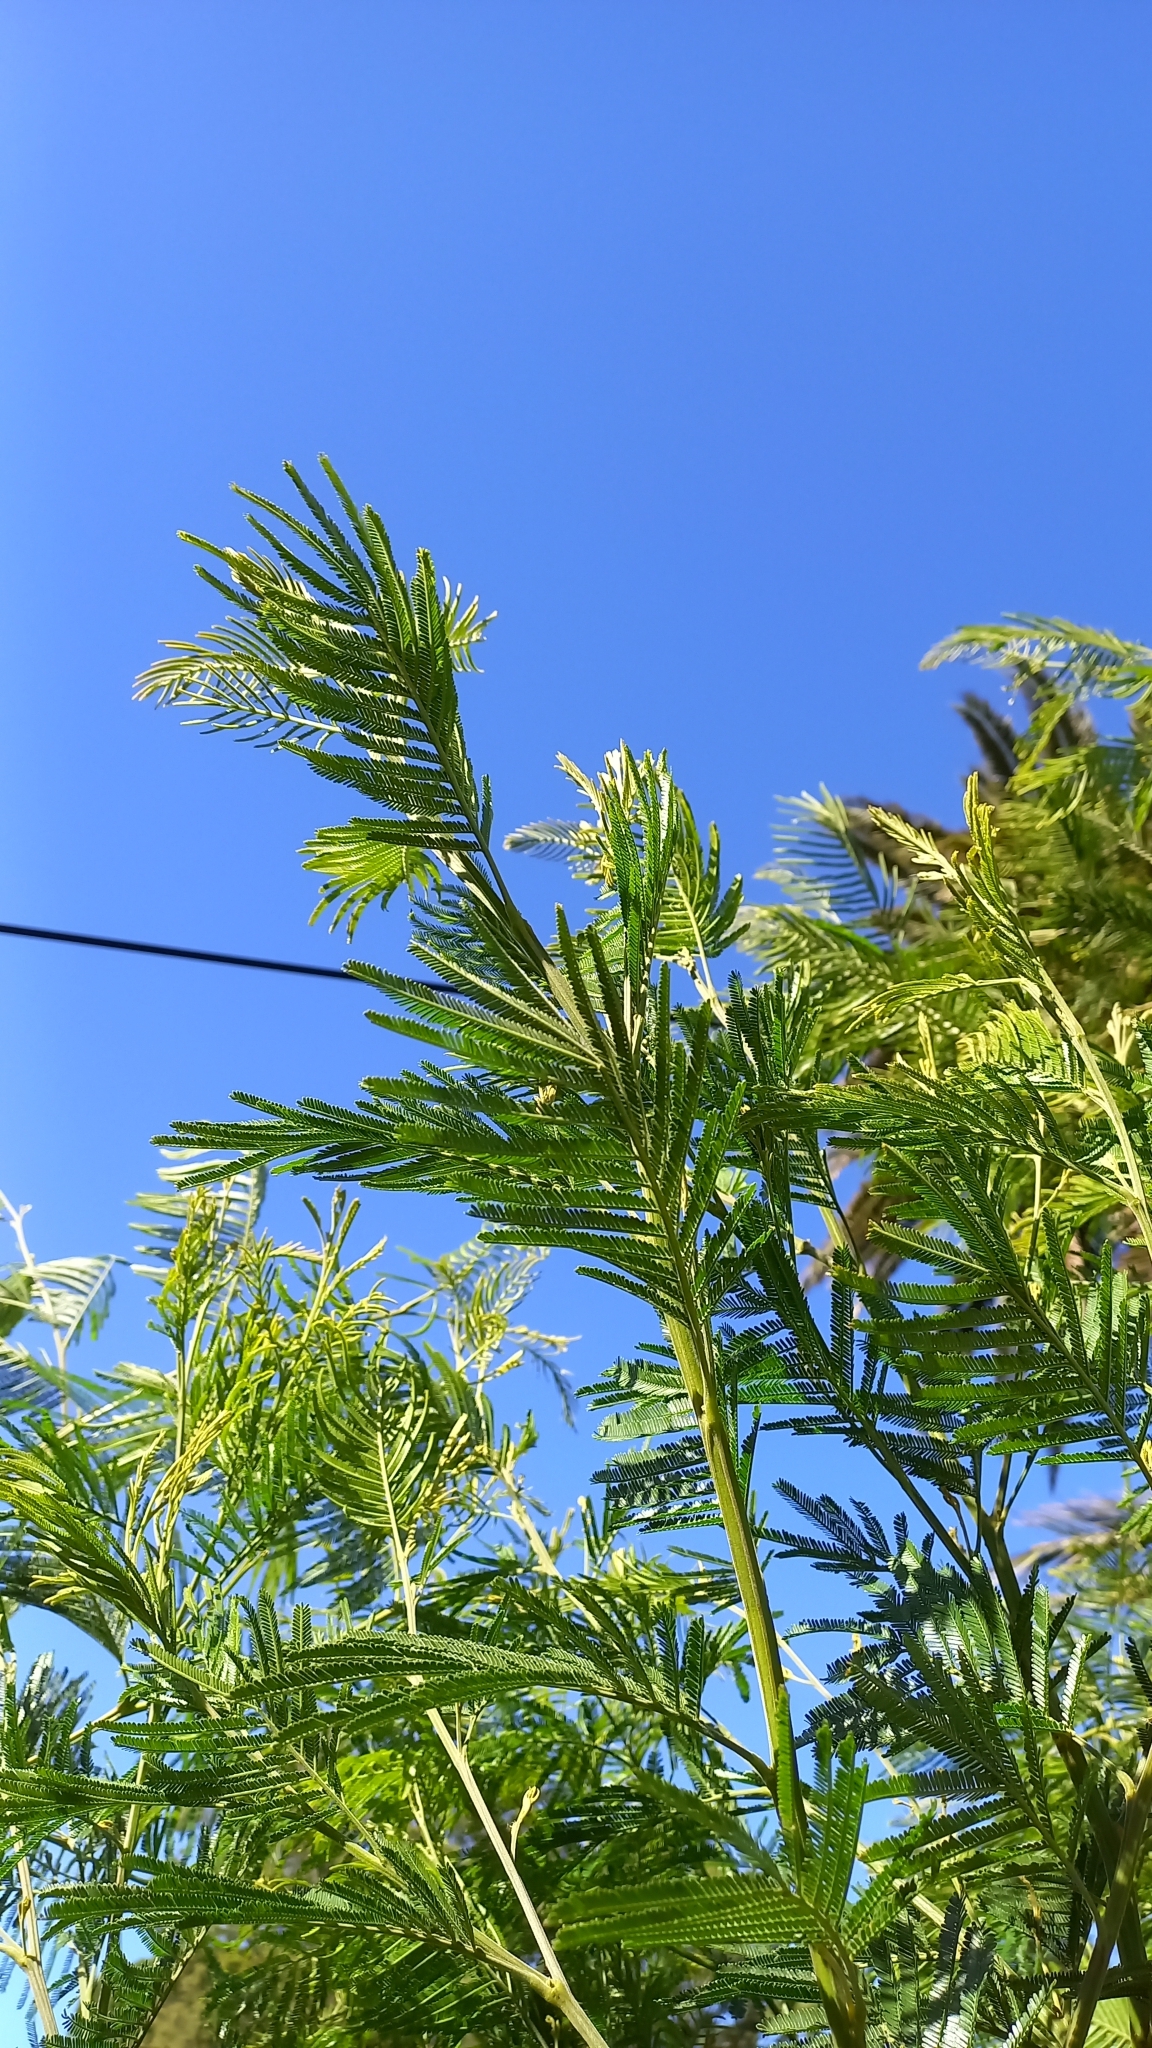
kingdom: Plantae
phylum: Tracheophyta
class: Magnoliopsida
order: Fabales
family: Fabaceae
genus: Acacia
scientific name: Acacia mearnsii
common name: Black wattle
